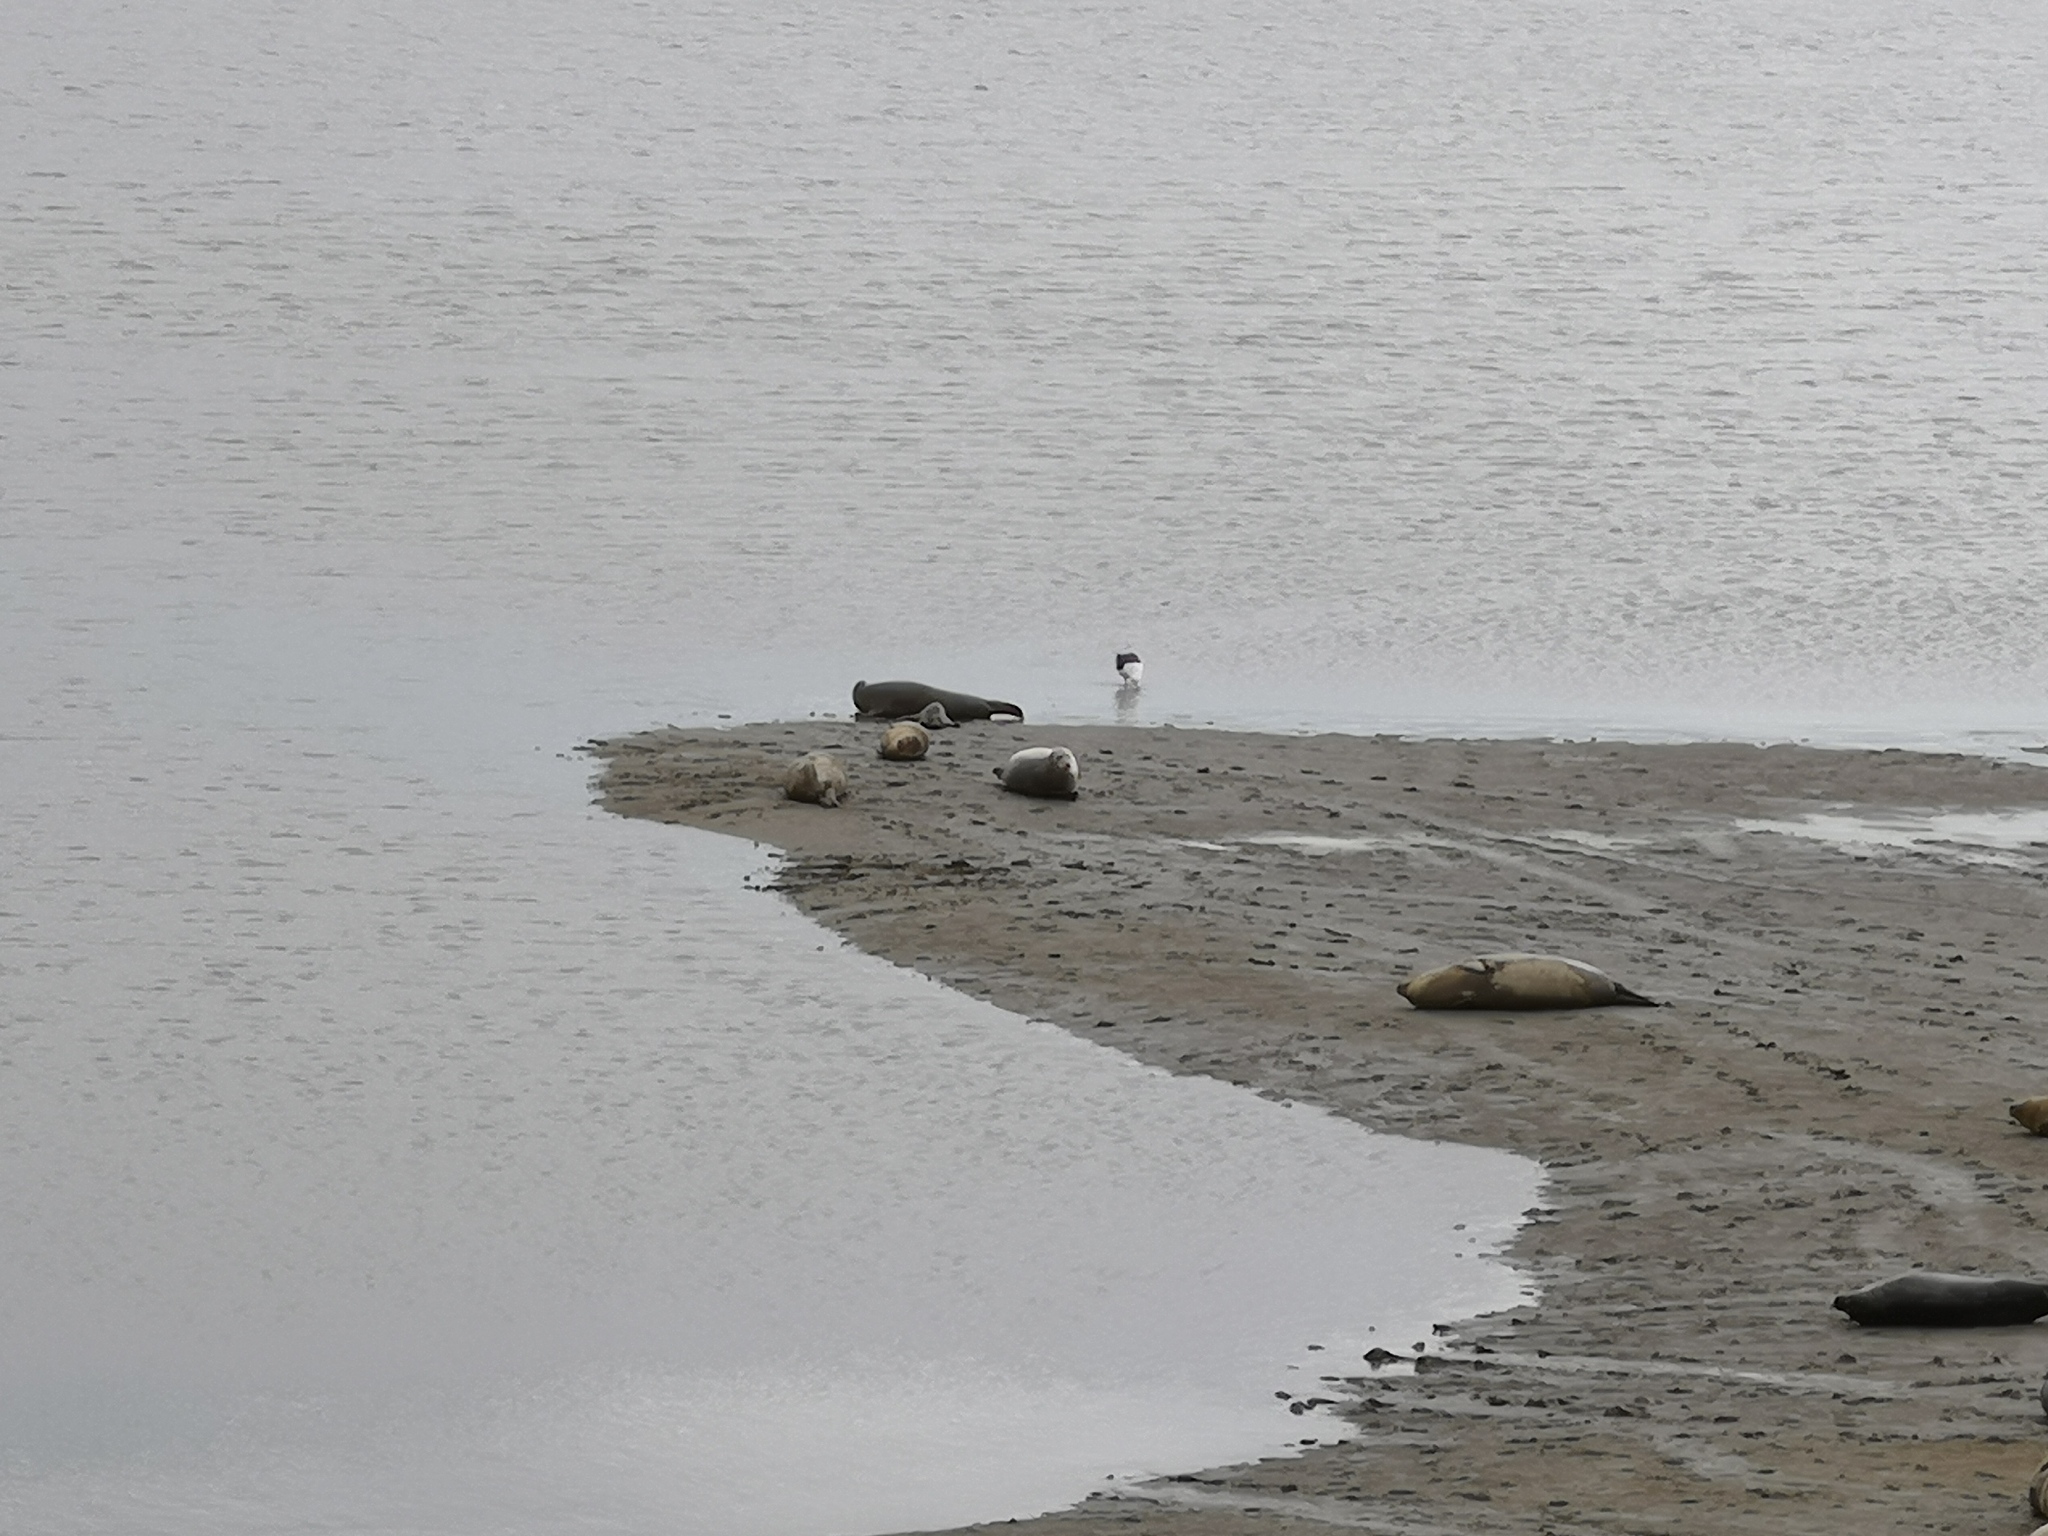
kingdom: Animalia
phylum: Chordata
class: Mammalia
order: Carnivora
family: Phocidae
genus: Phoca
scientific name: Phoca vitulina
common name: Harbor seal
